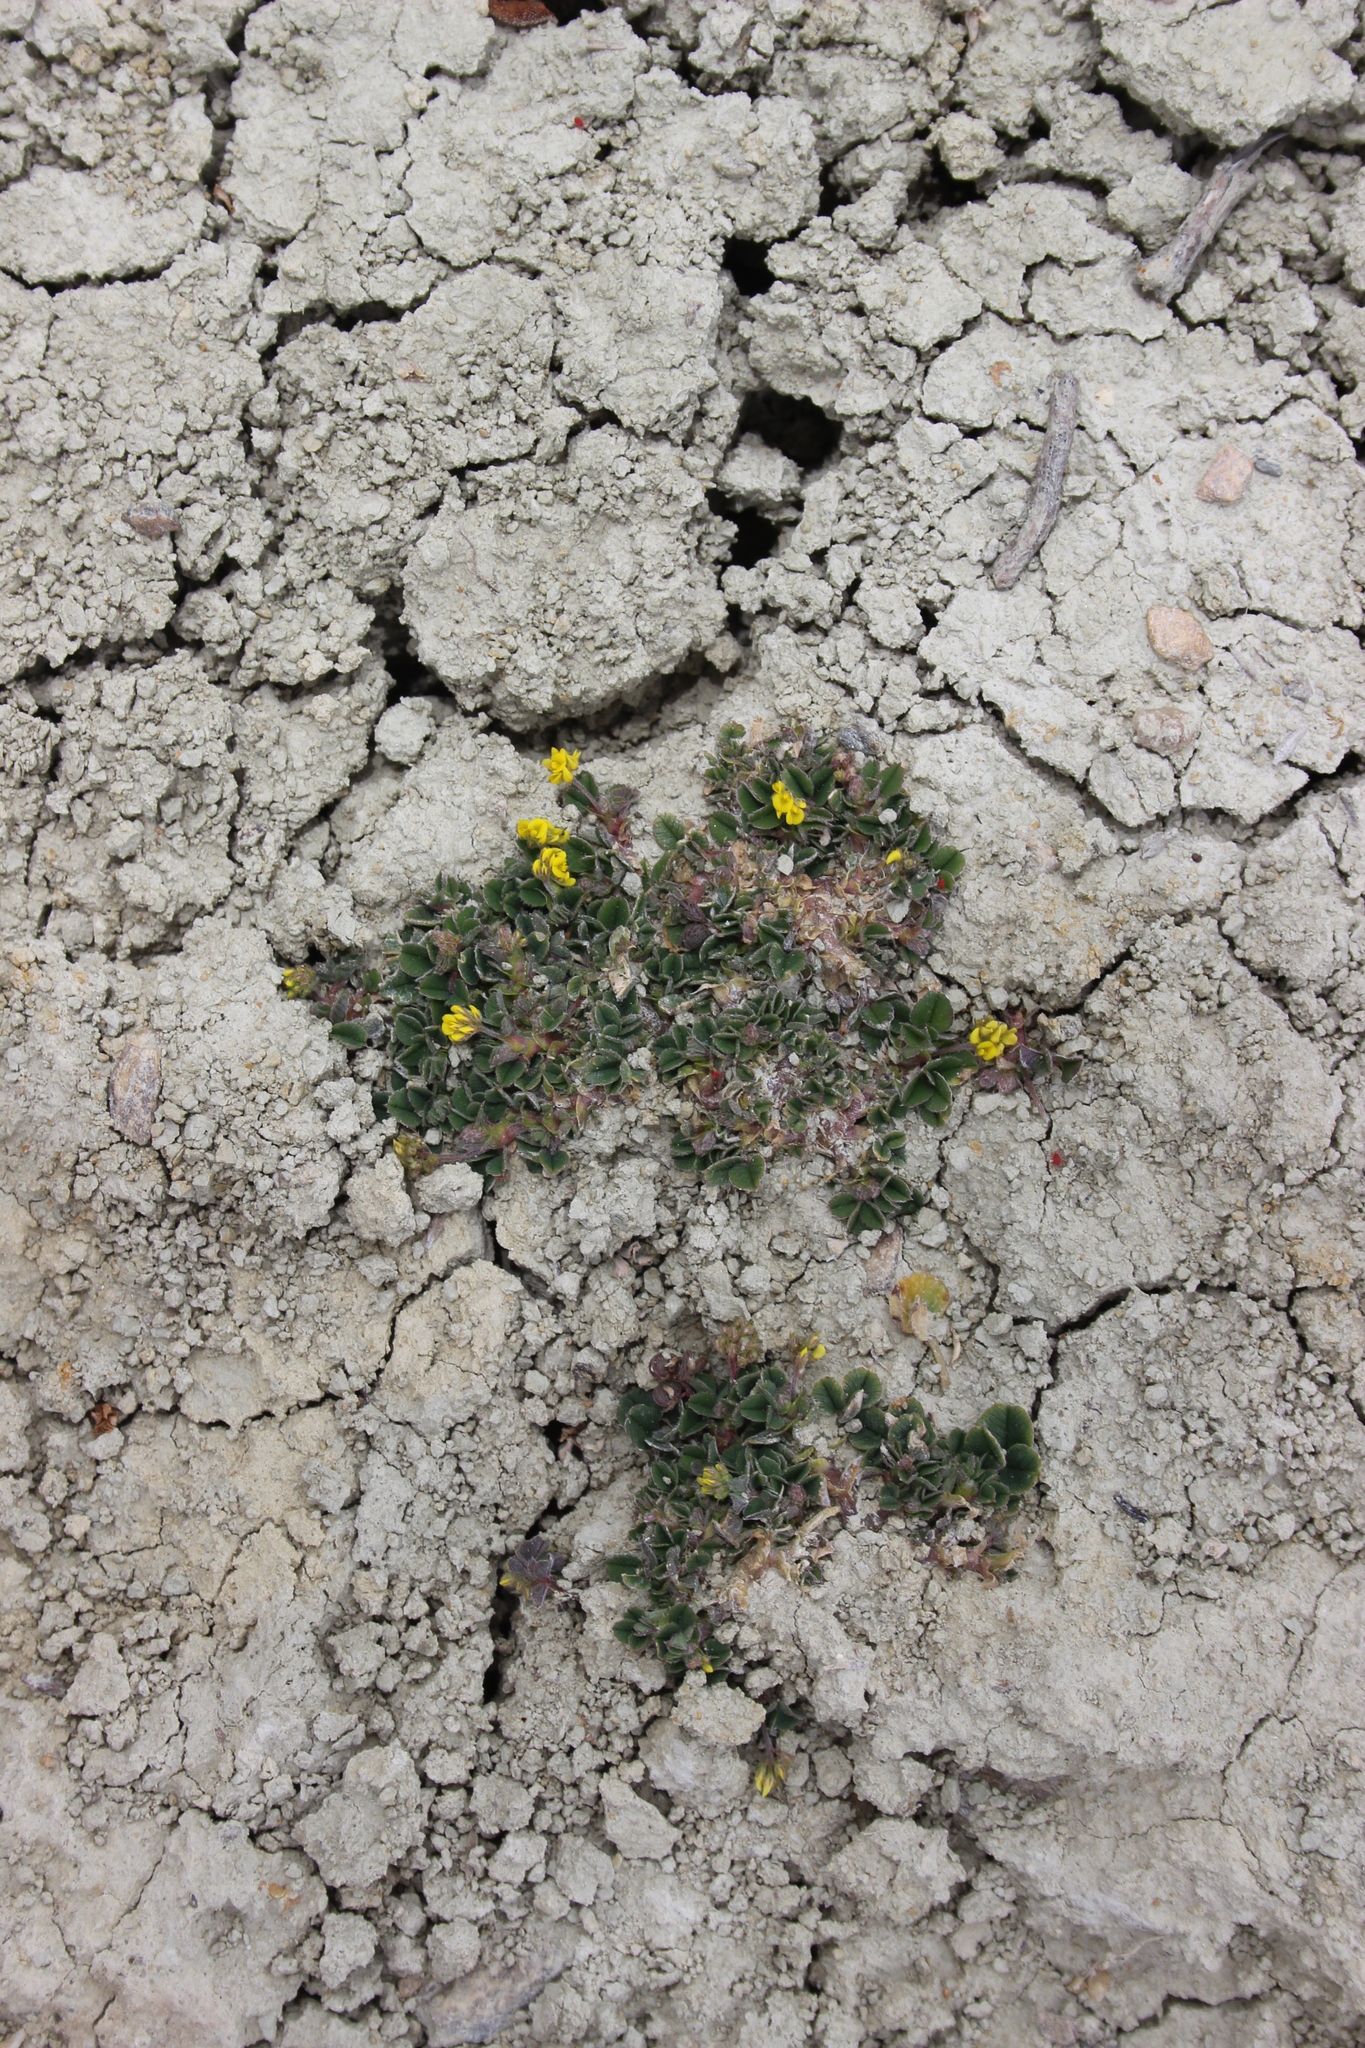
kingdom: Plantae
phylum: Tracheophyta
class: Magnoliopsida
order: Fabales
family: Fabaceae
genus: Medicago
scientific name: Medicago lupulina
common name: Black medick
